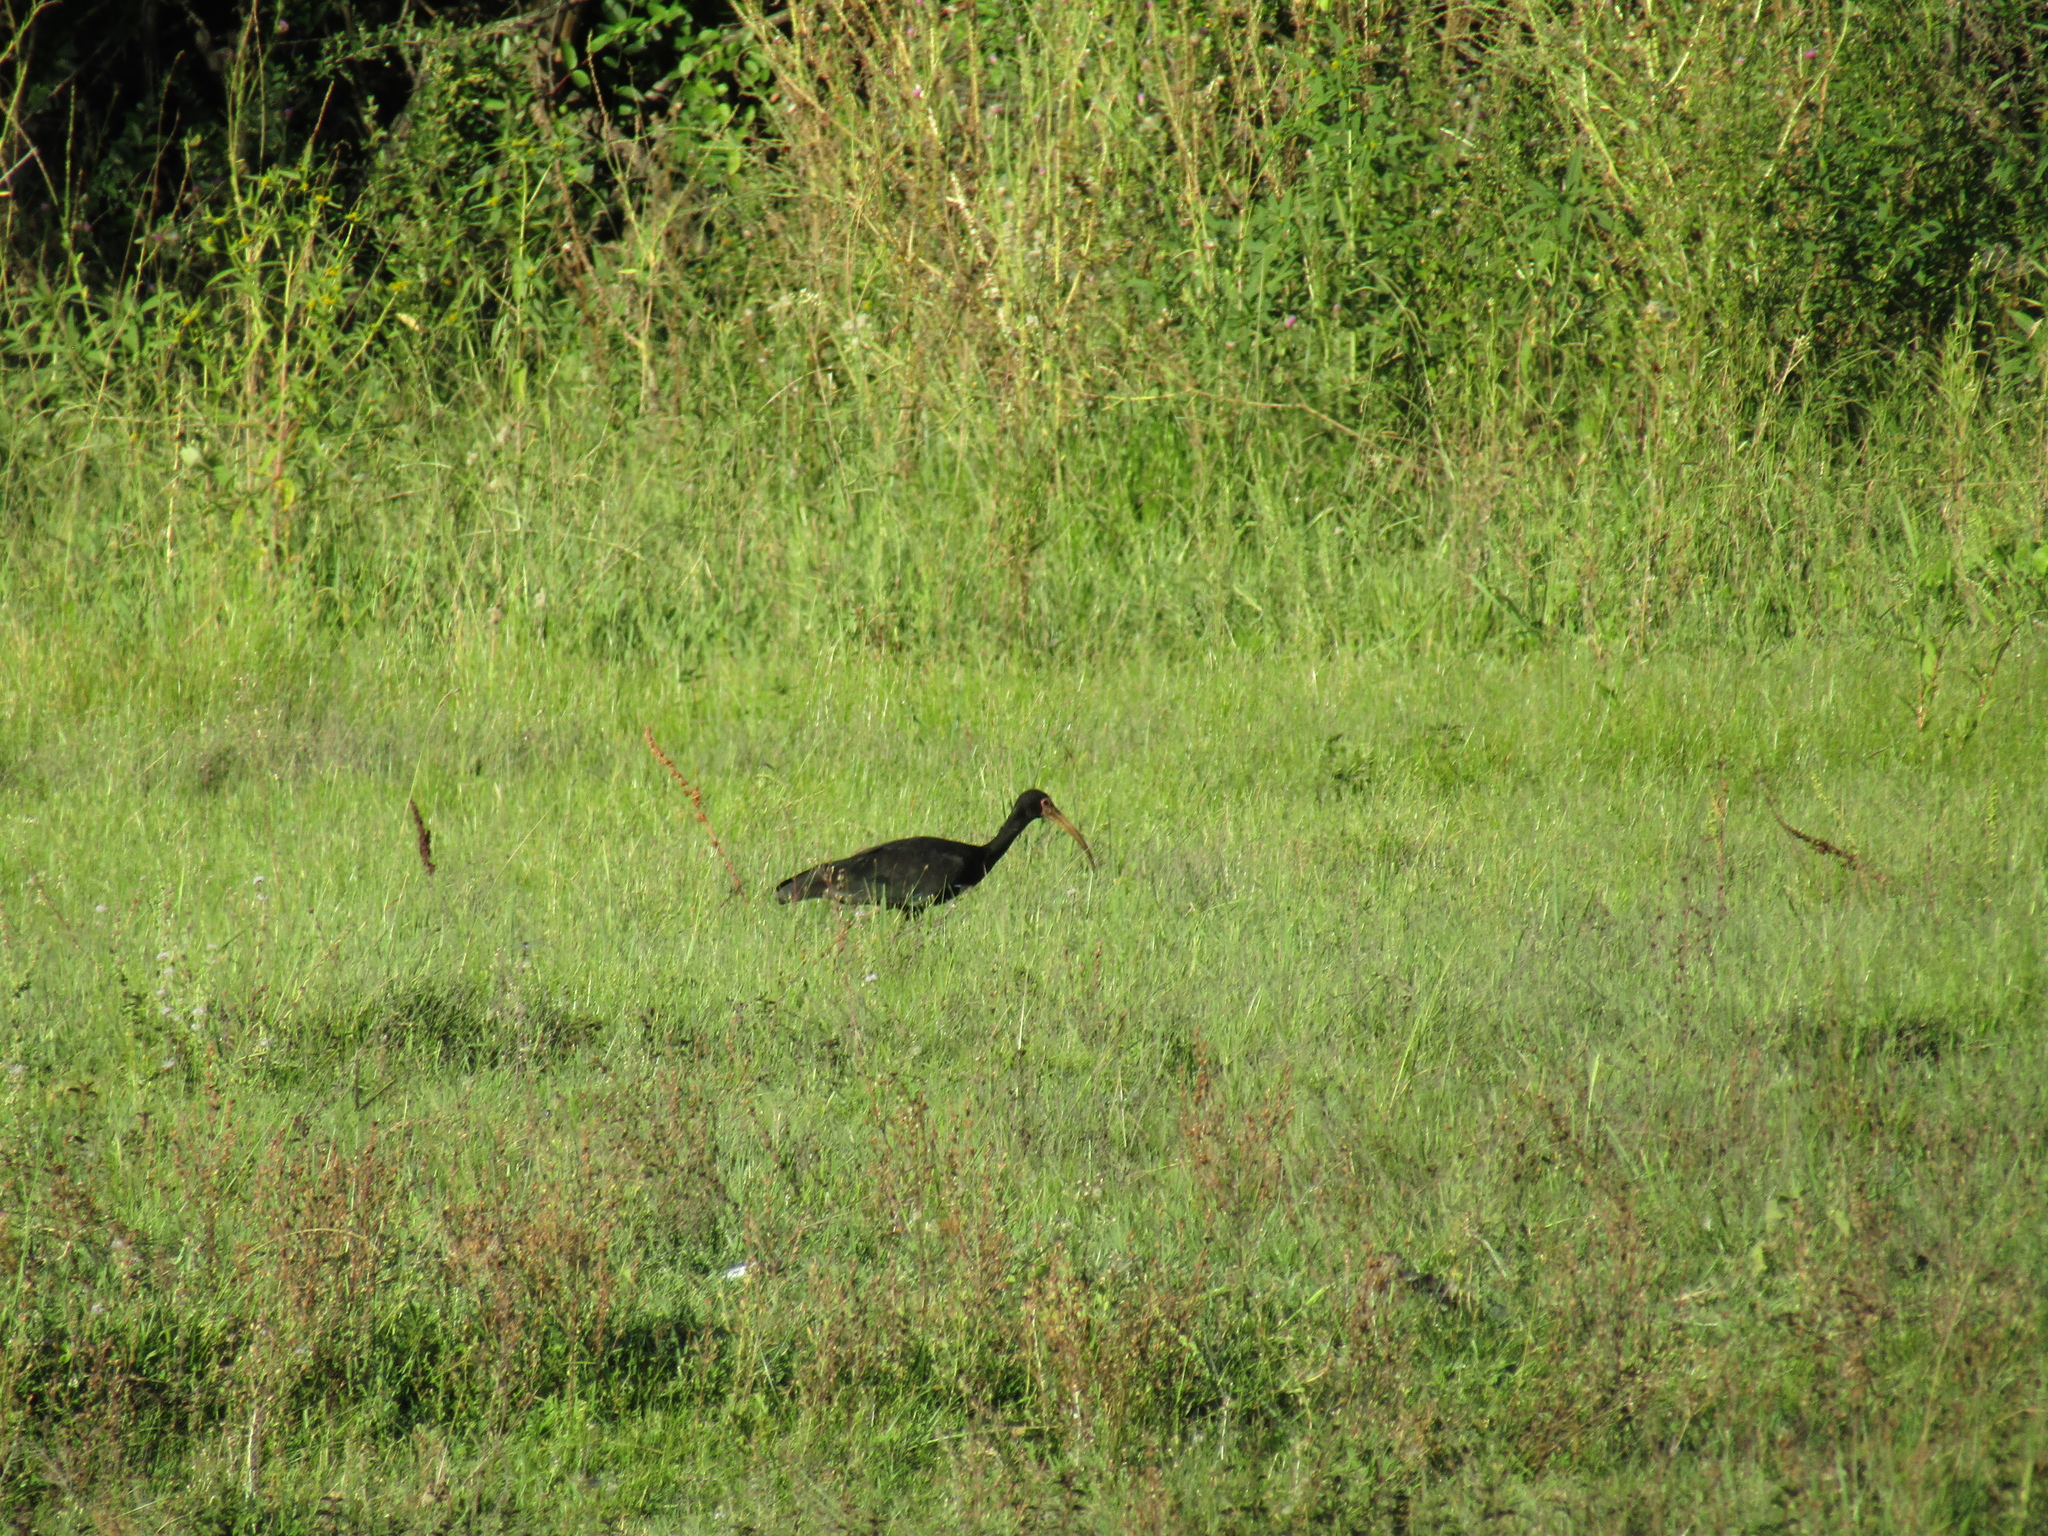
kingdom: Animalia
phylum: Chordata
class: Aves
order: Pelecaniformes
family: Threskiornithidae
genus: Phimosus
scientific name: Phimosus infuscatus
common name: Bare-faced ibis
